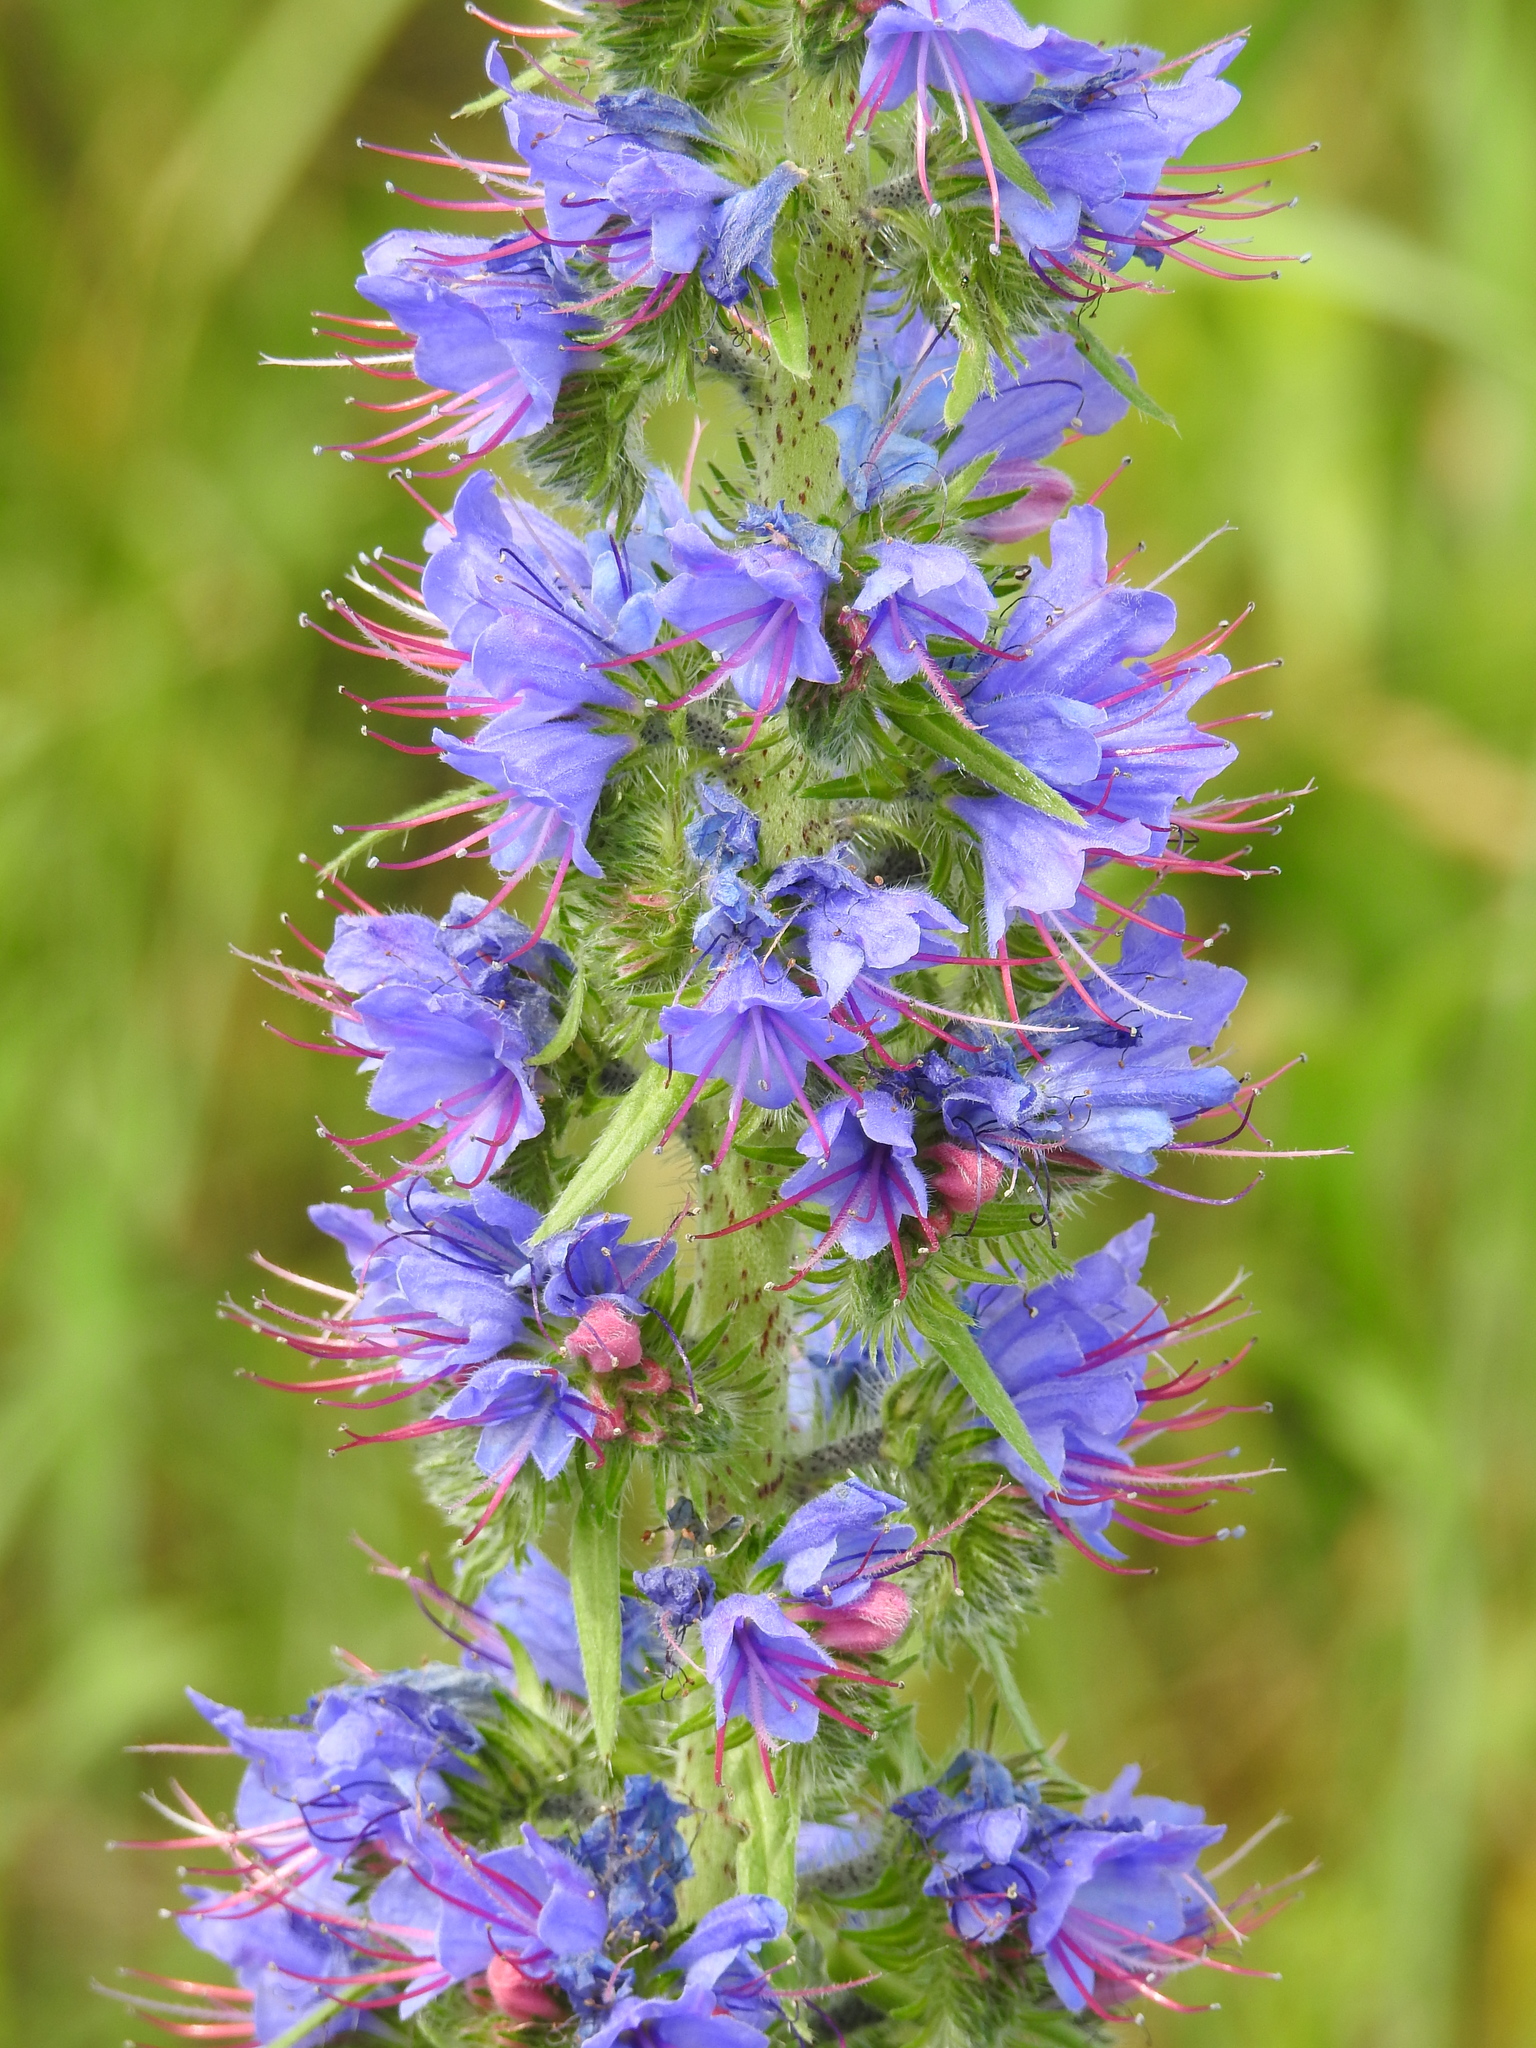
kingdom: Plantae
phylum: Tracheophyta
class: Magnoliopsida
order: Boraginales
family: Boraginaceae
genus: Echium
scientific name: Echium vulgare
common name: Common viper's bugloss
